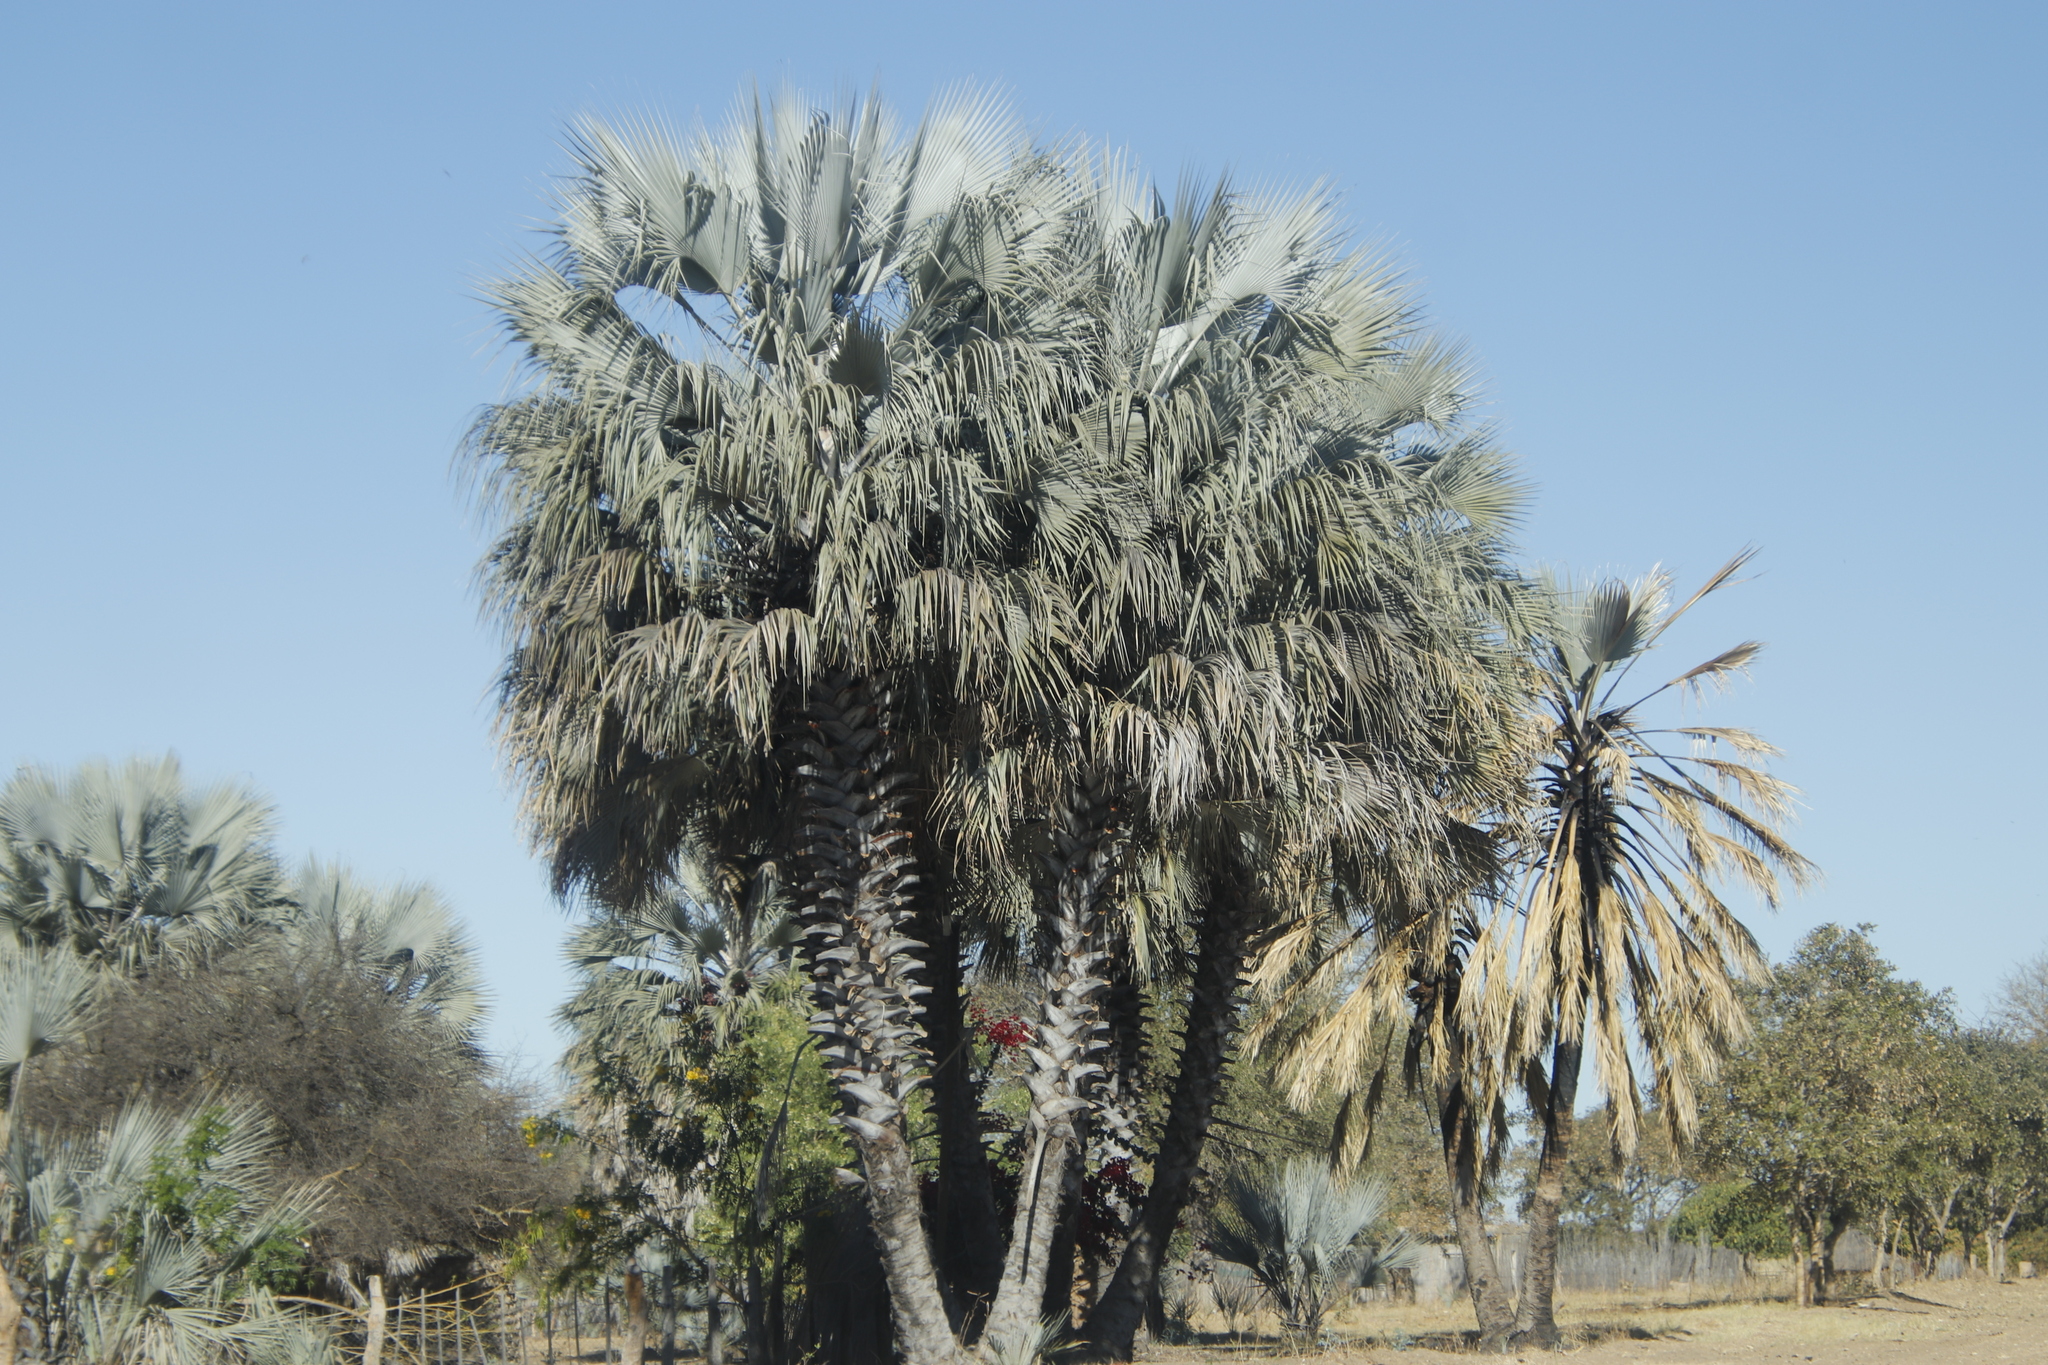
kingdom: Plantae
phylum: Tracheophyta
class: Liliopsida
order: Arecales
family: Arecaceae
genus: Hyphaene
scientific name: Hyphaene petersiana
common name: African ivory nut palm
